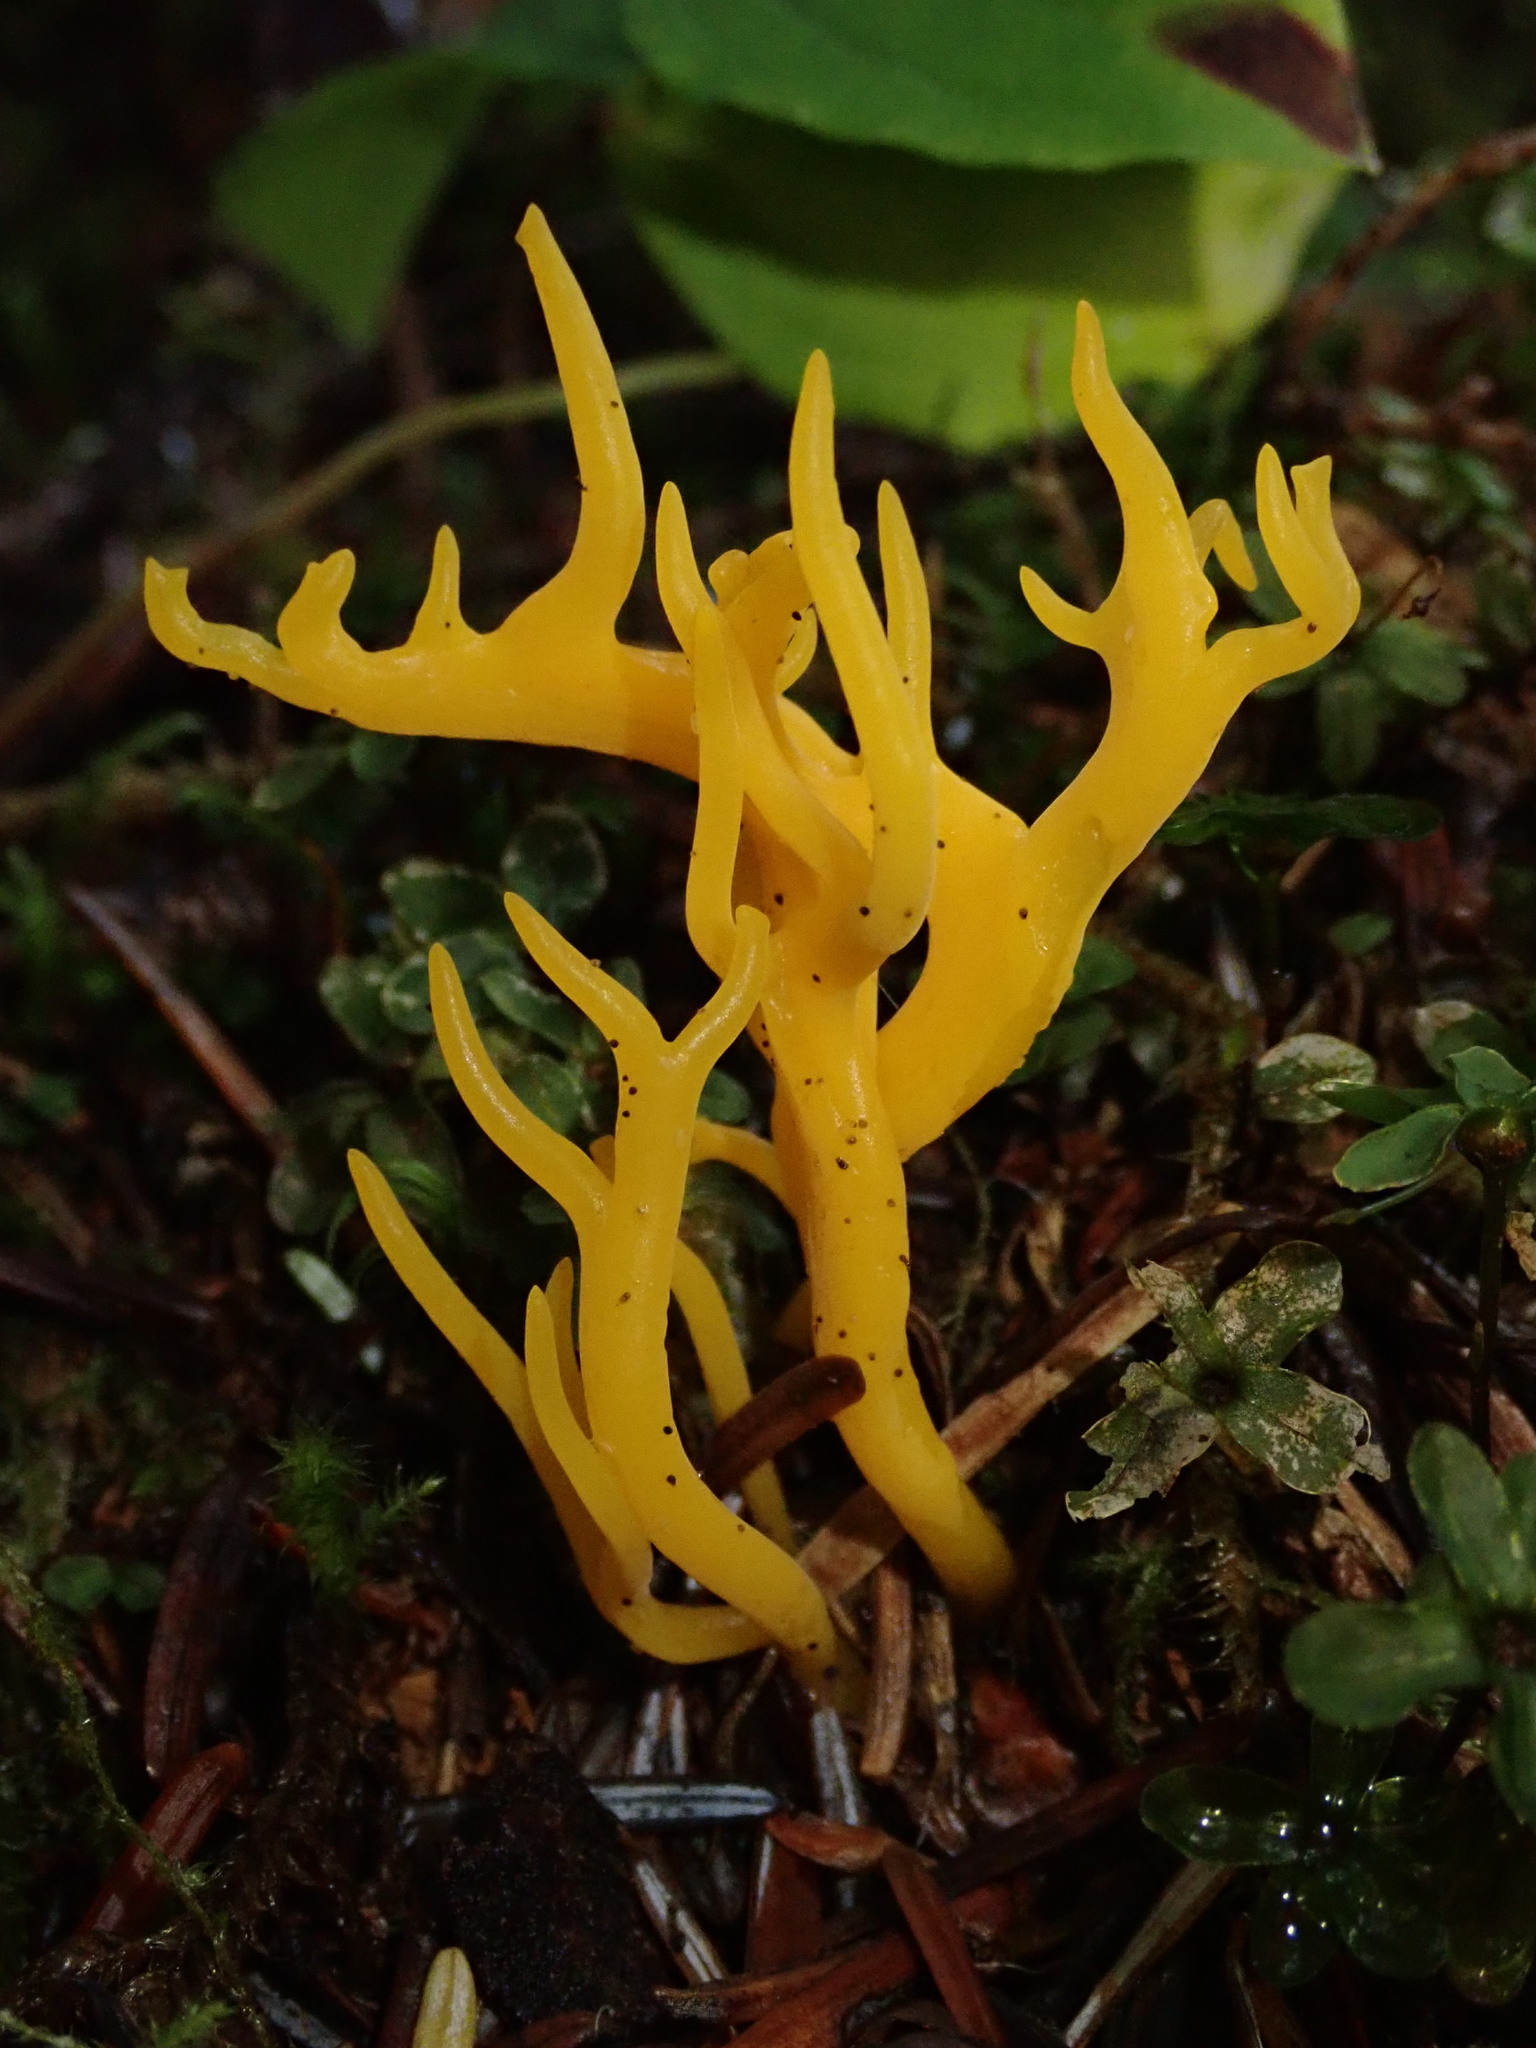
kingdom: Fungi
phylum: Basidiomycota
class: Dacrymycetes
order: Dacrymycetales
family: Dacrymycetaceae
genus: Calocera
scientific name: Calocera viscosa
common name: Yellow stagshorn
